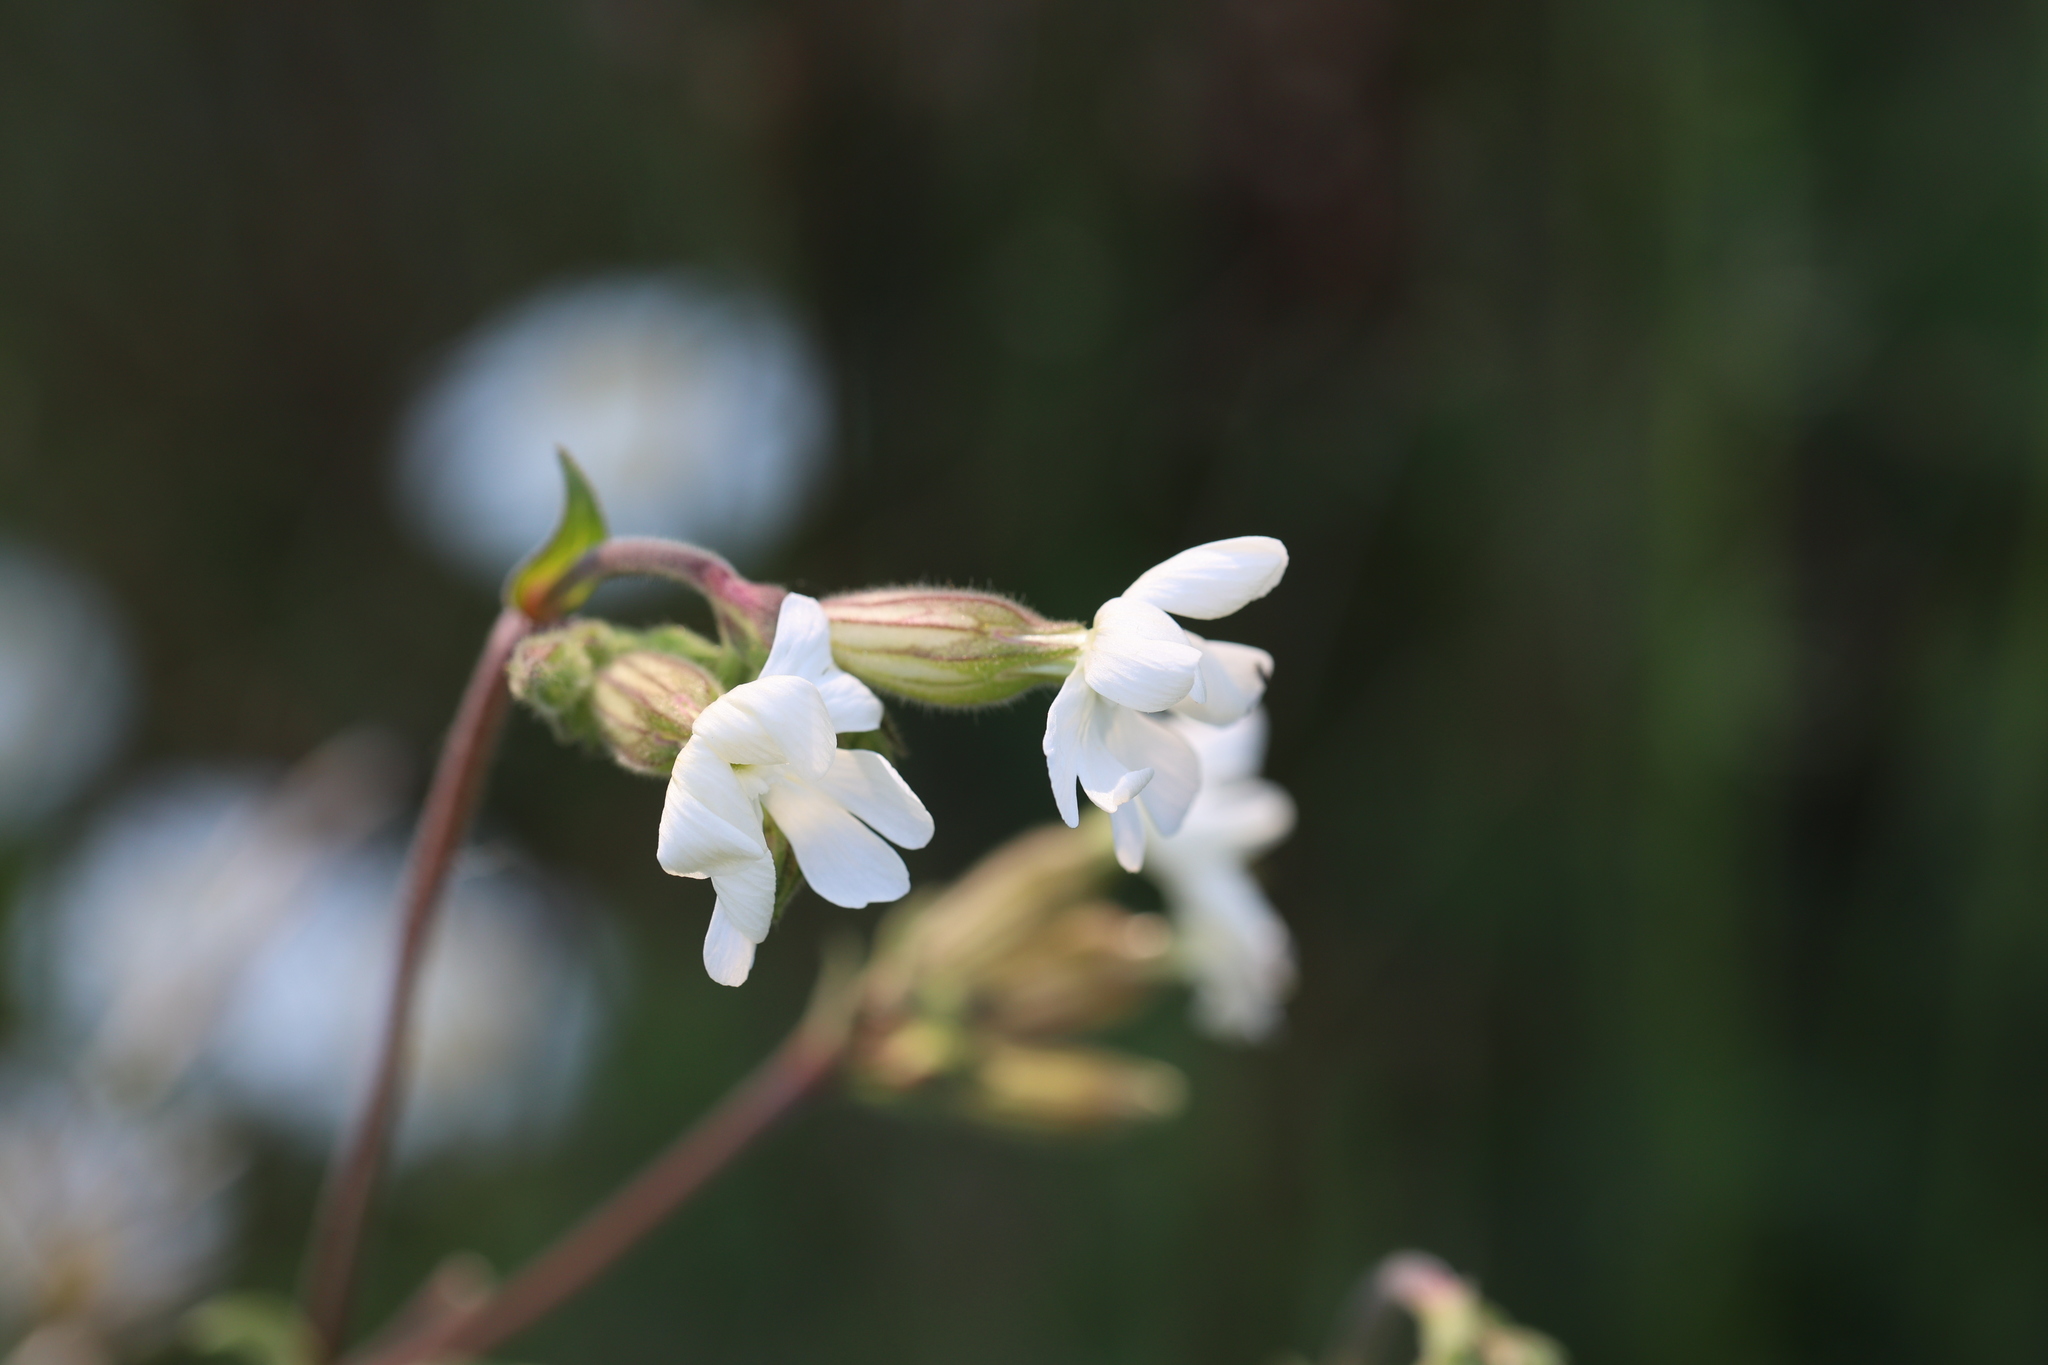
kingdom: Plantae
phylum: Tracheophyta
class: Magnoliopsida
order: Caryophyllales
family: Caryophyllaceae
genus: Silene
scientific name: Silene latifolia
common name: White campion
